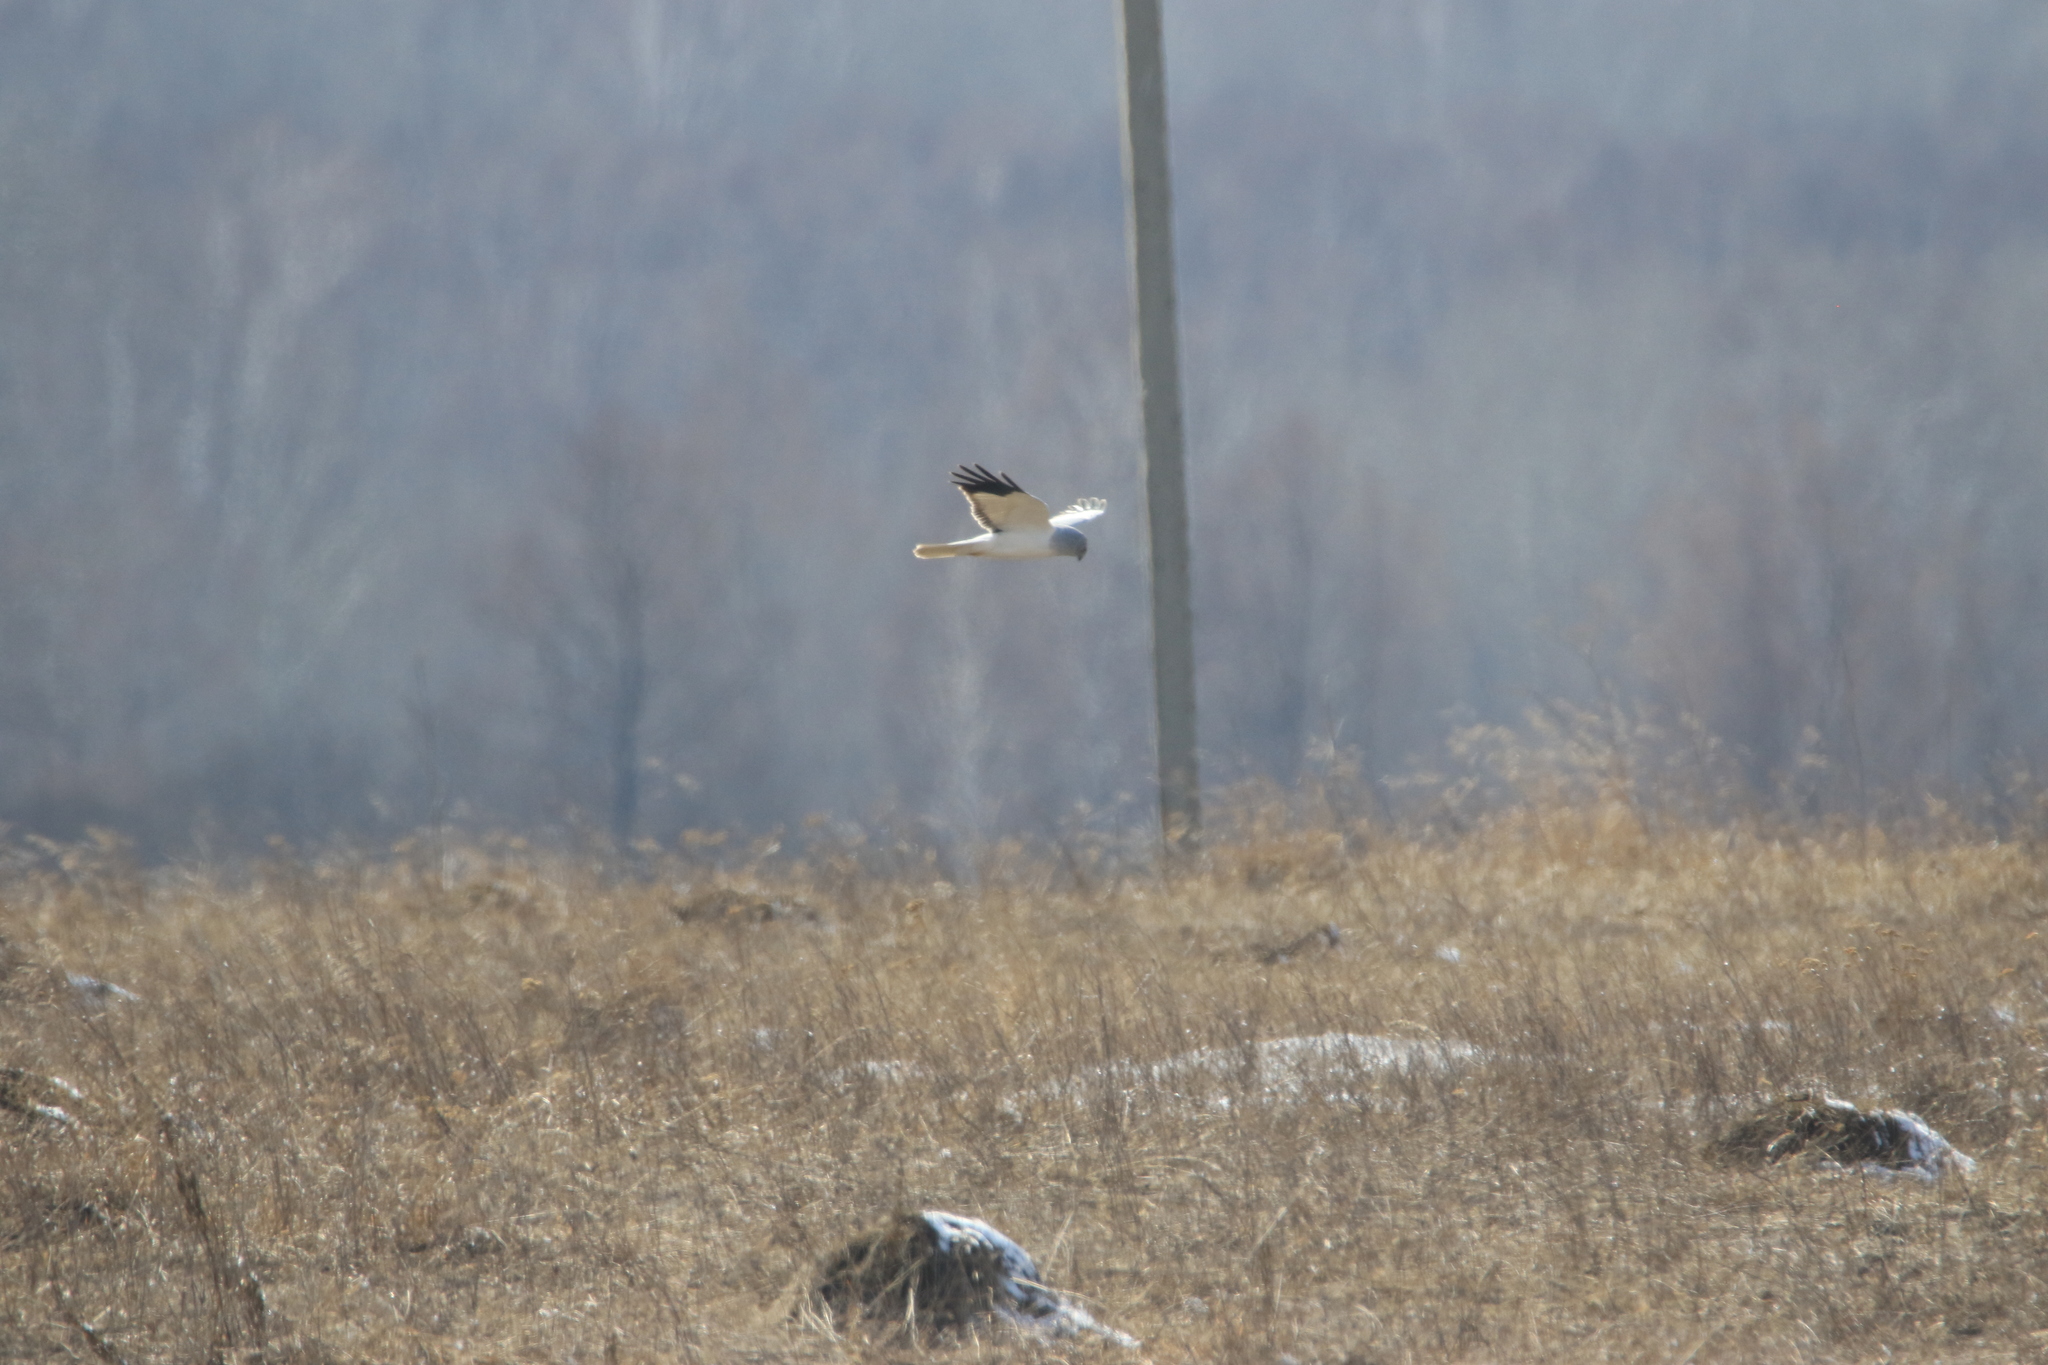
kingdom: Animalia
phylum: Chordata
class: Aves
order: Accipitriformes
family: Accipitridae
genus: Circus
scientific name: Circus cyaneus
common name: Hen harrier
